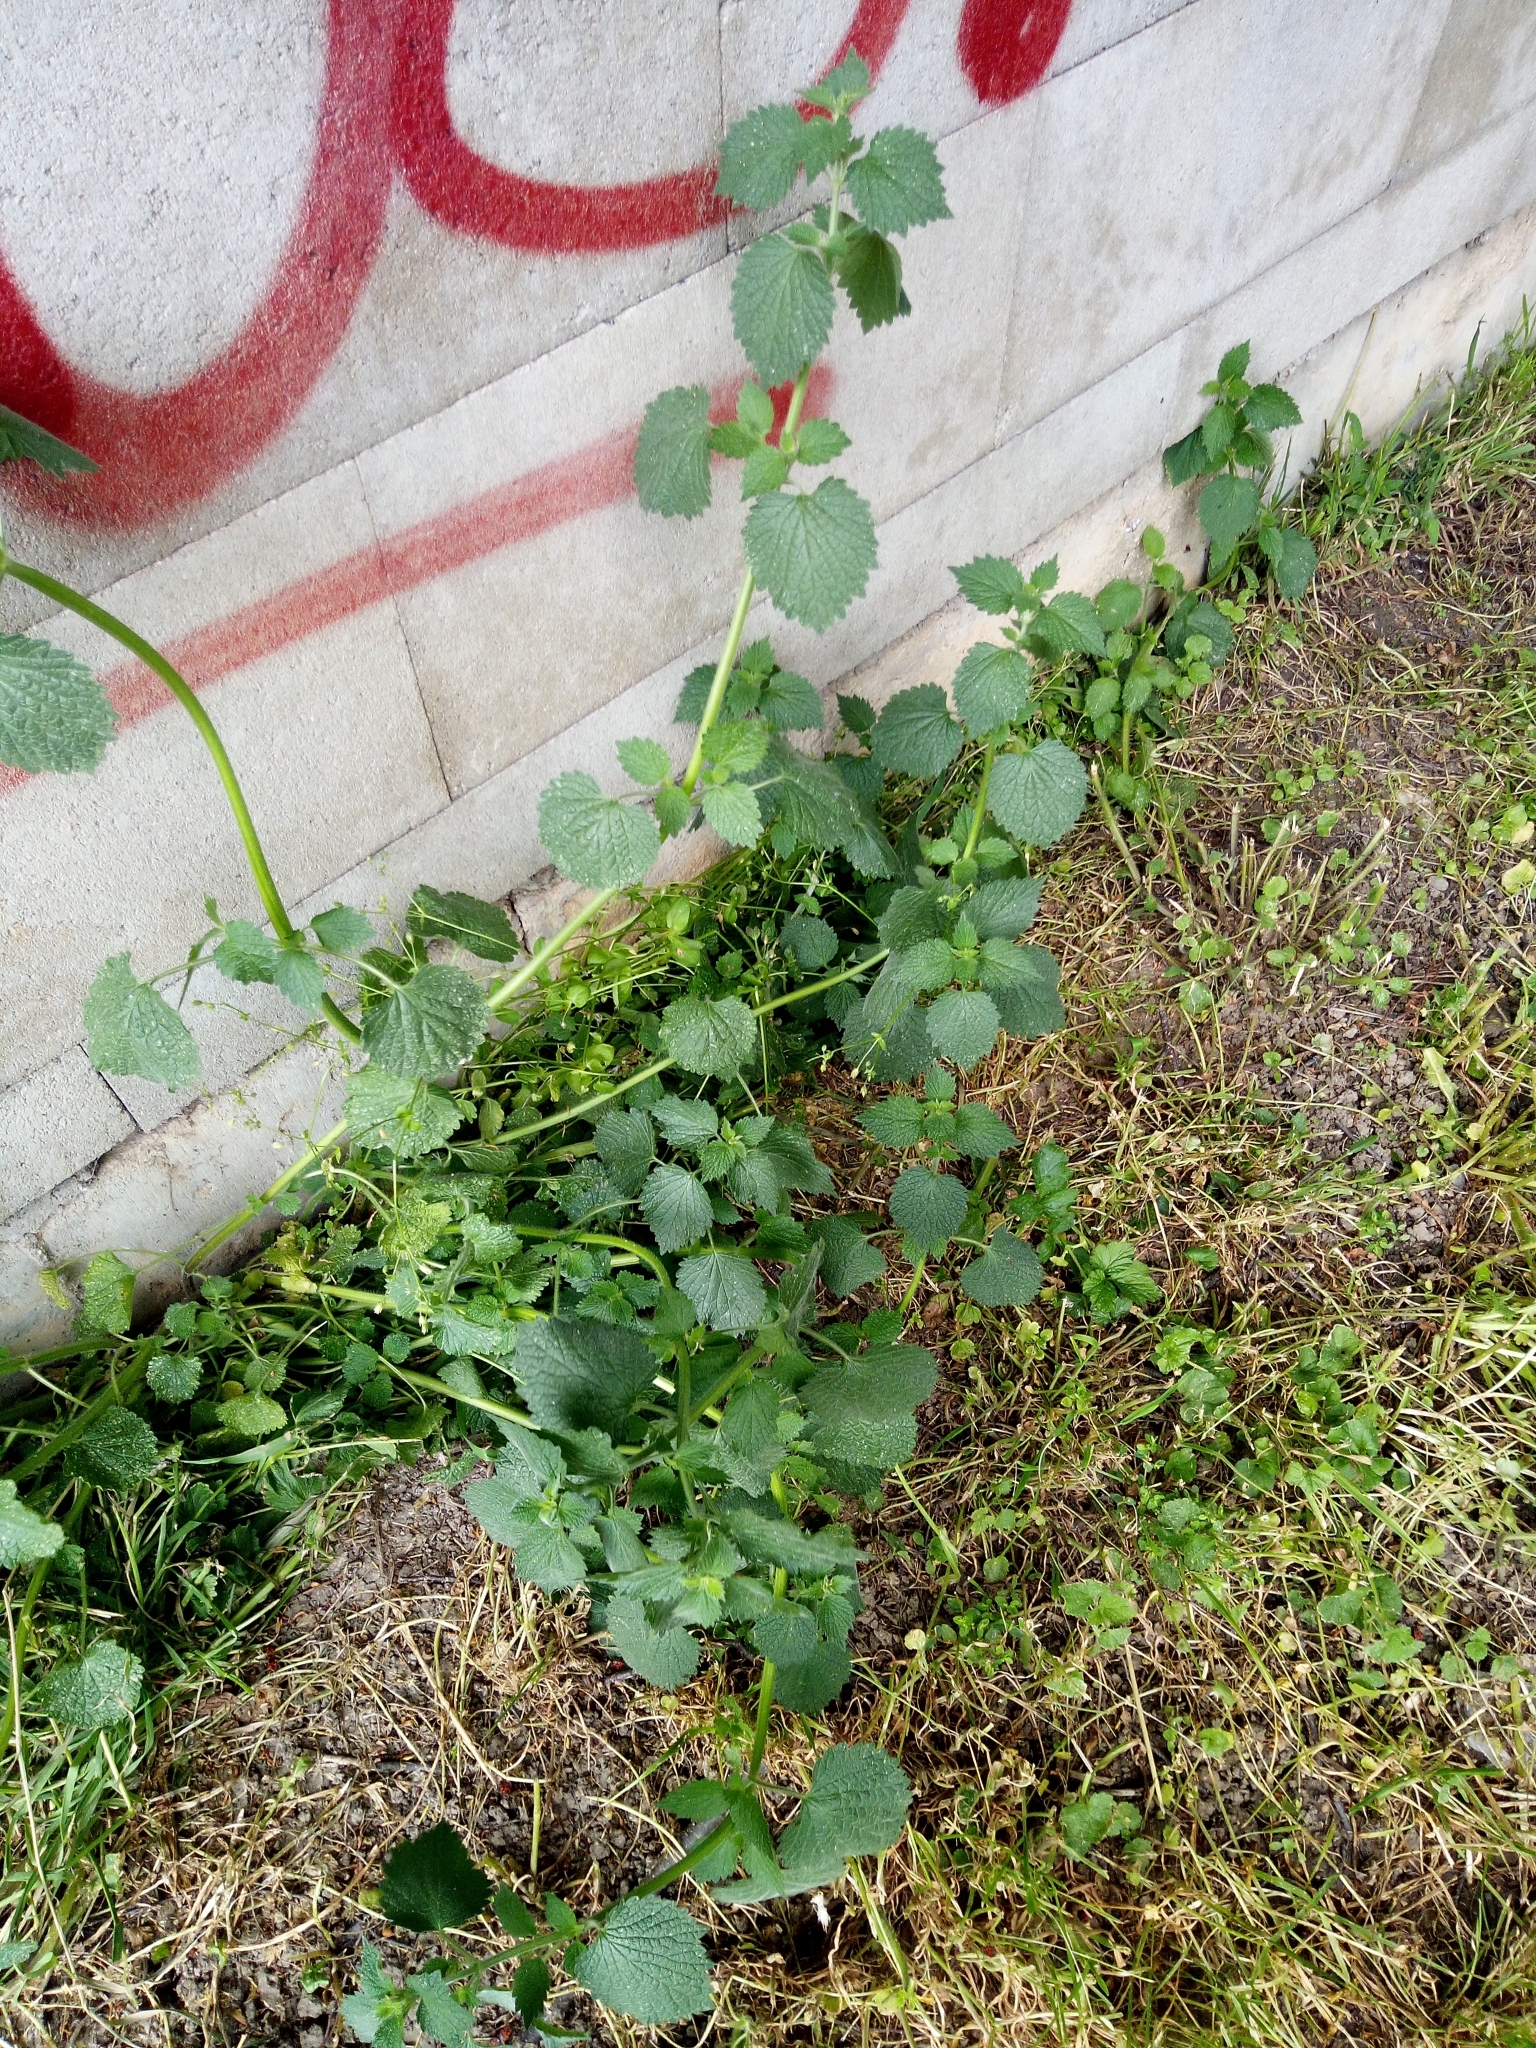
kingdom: Plantae
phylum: Tracheophyta
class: Magnoliopsida
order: Lamiales
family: Lamiaceae
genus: Ballota
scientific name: Ballota nigra
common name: Black horehound
